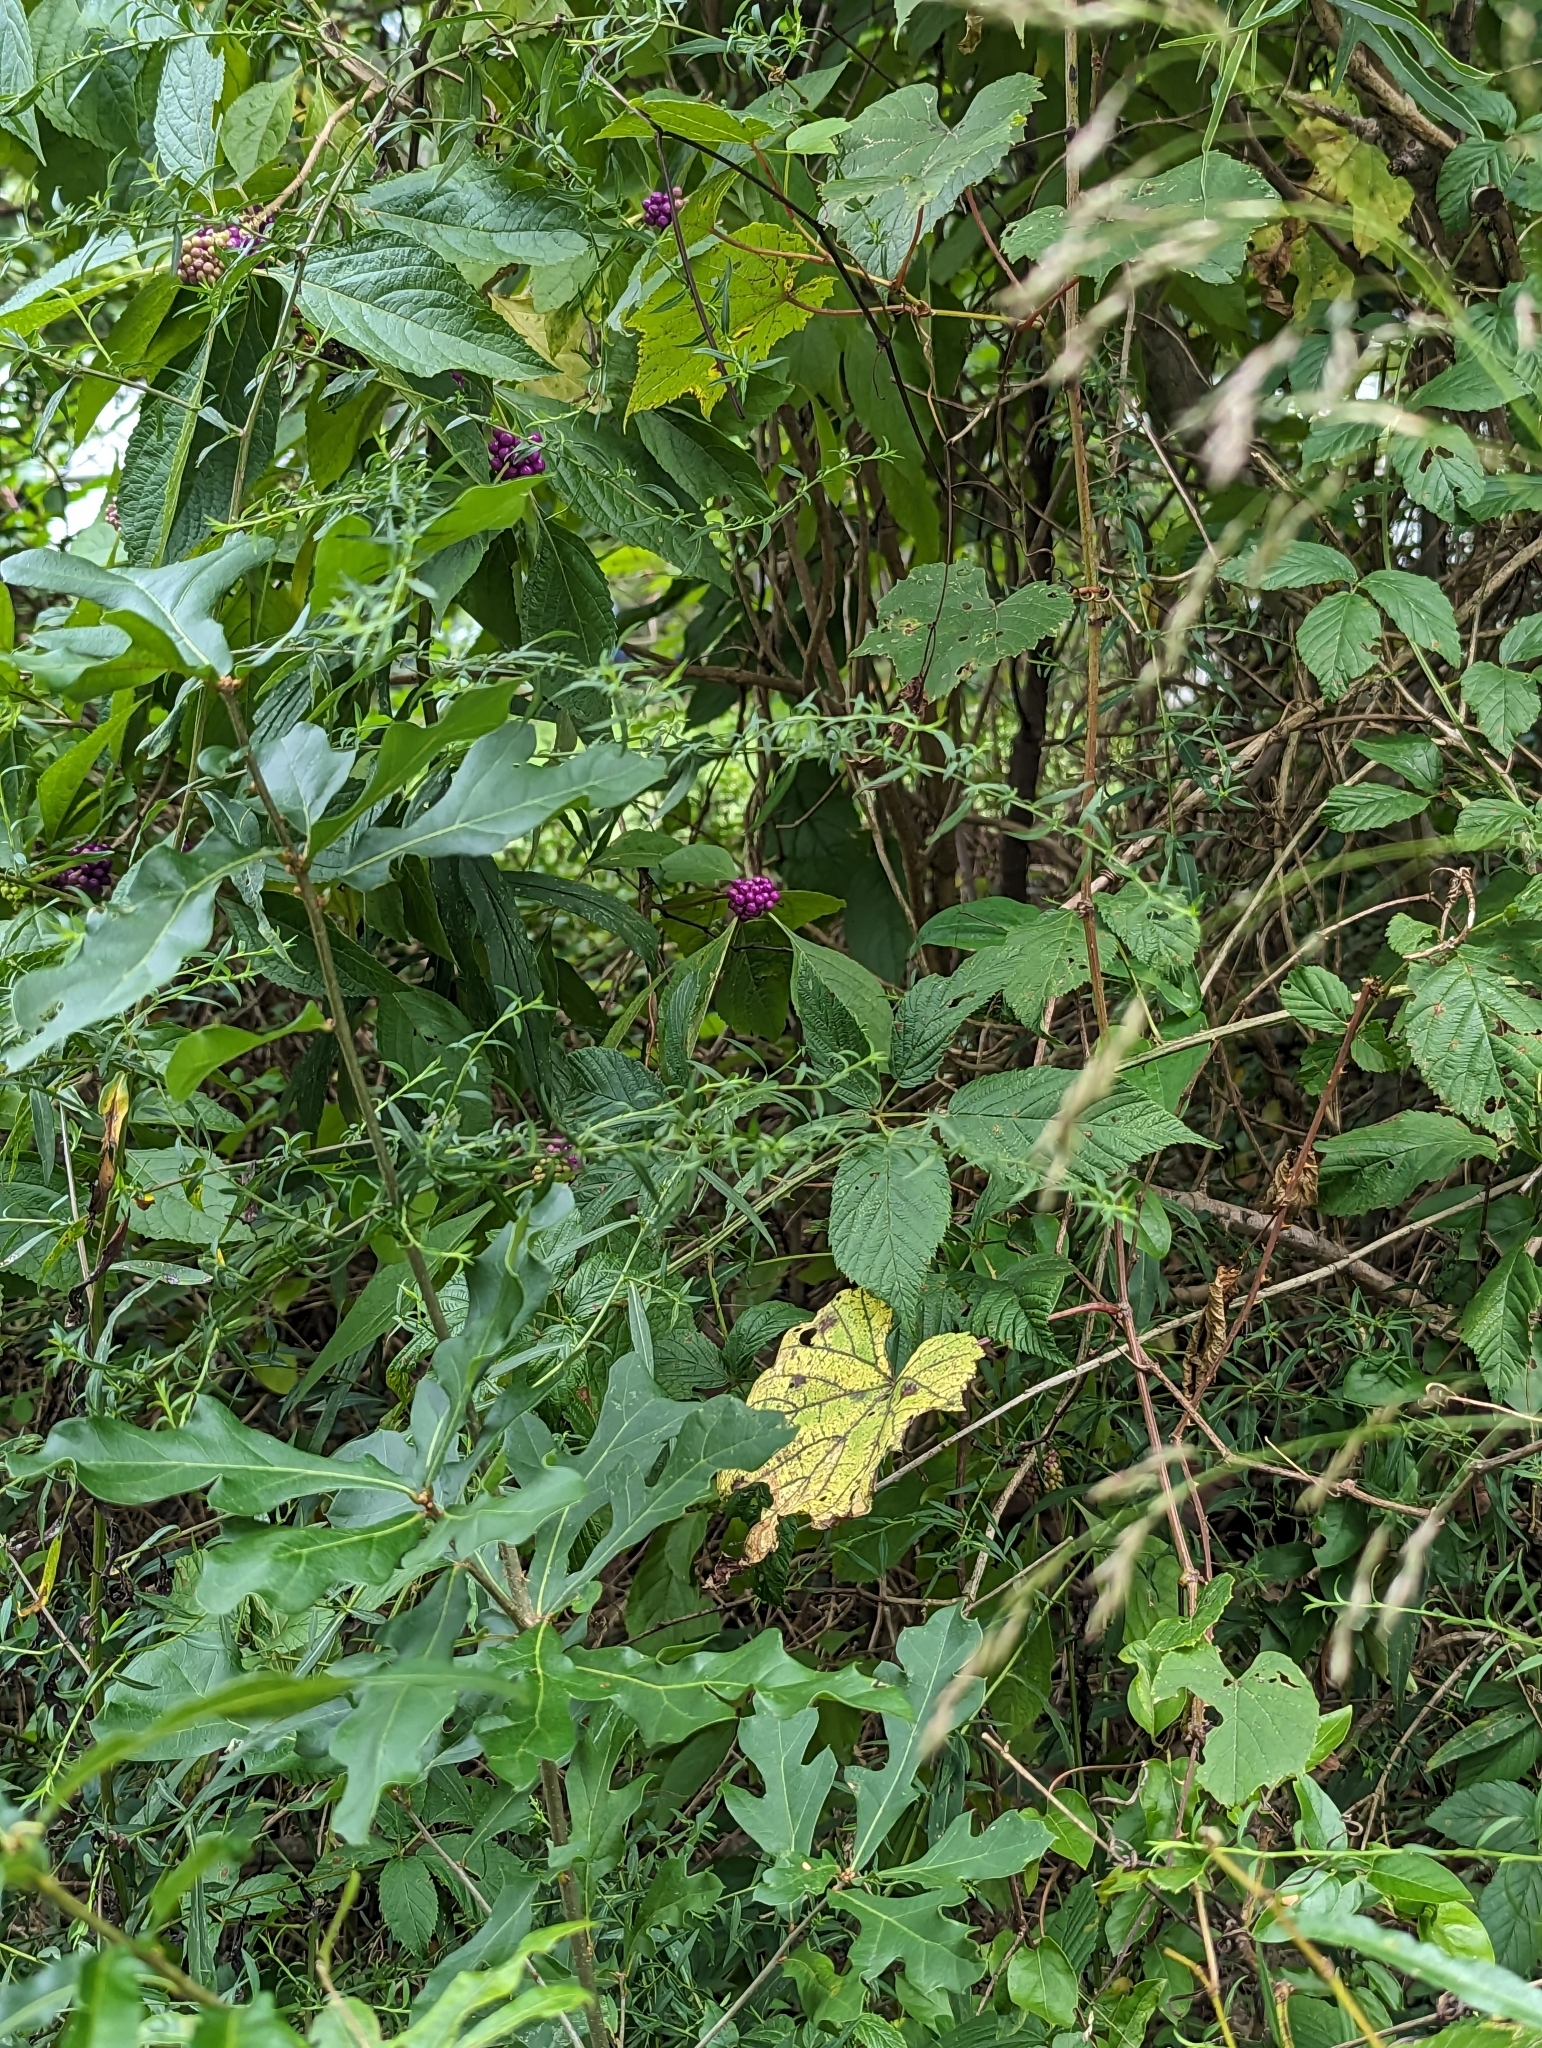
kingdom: Plantae
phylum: Tracheophyta
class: Magnoliopsida
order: Lamiales
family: Lamiaceae
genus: Callicarpa
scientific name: Callicarpa americana
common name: American beautyberry
